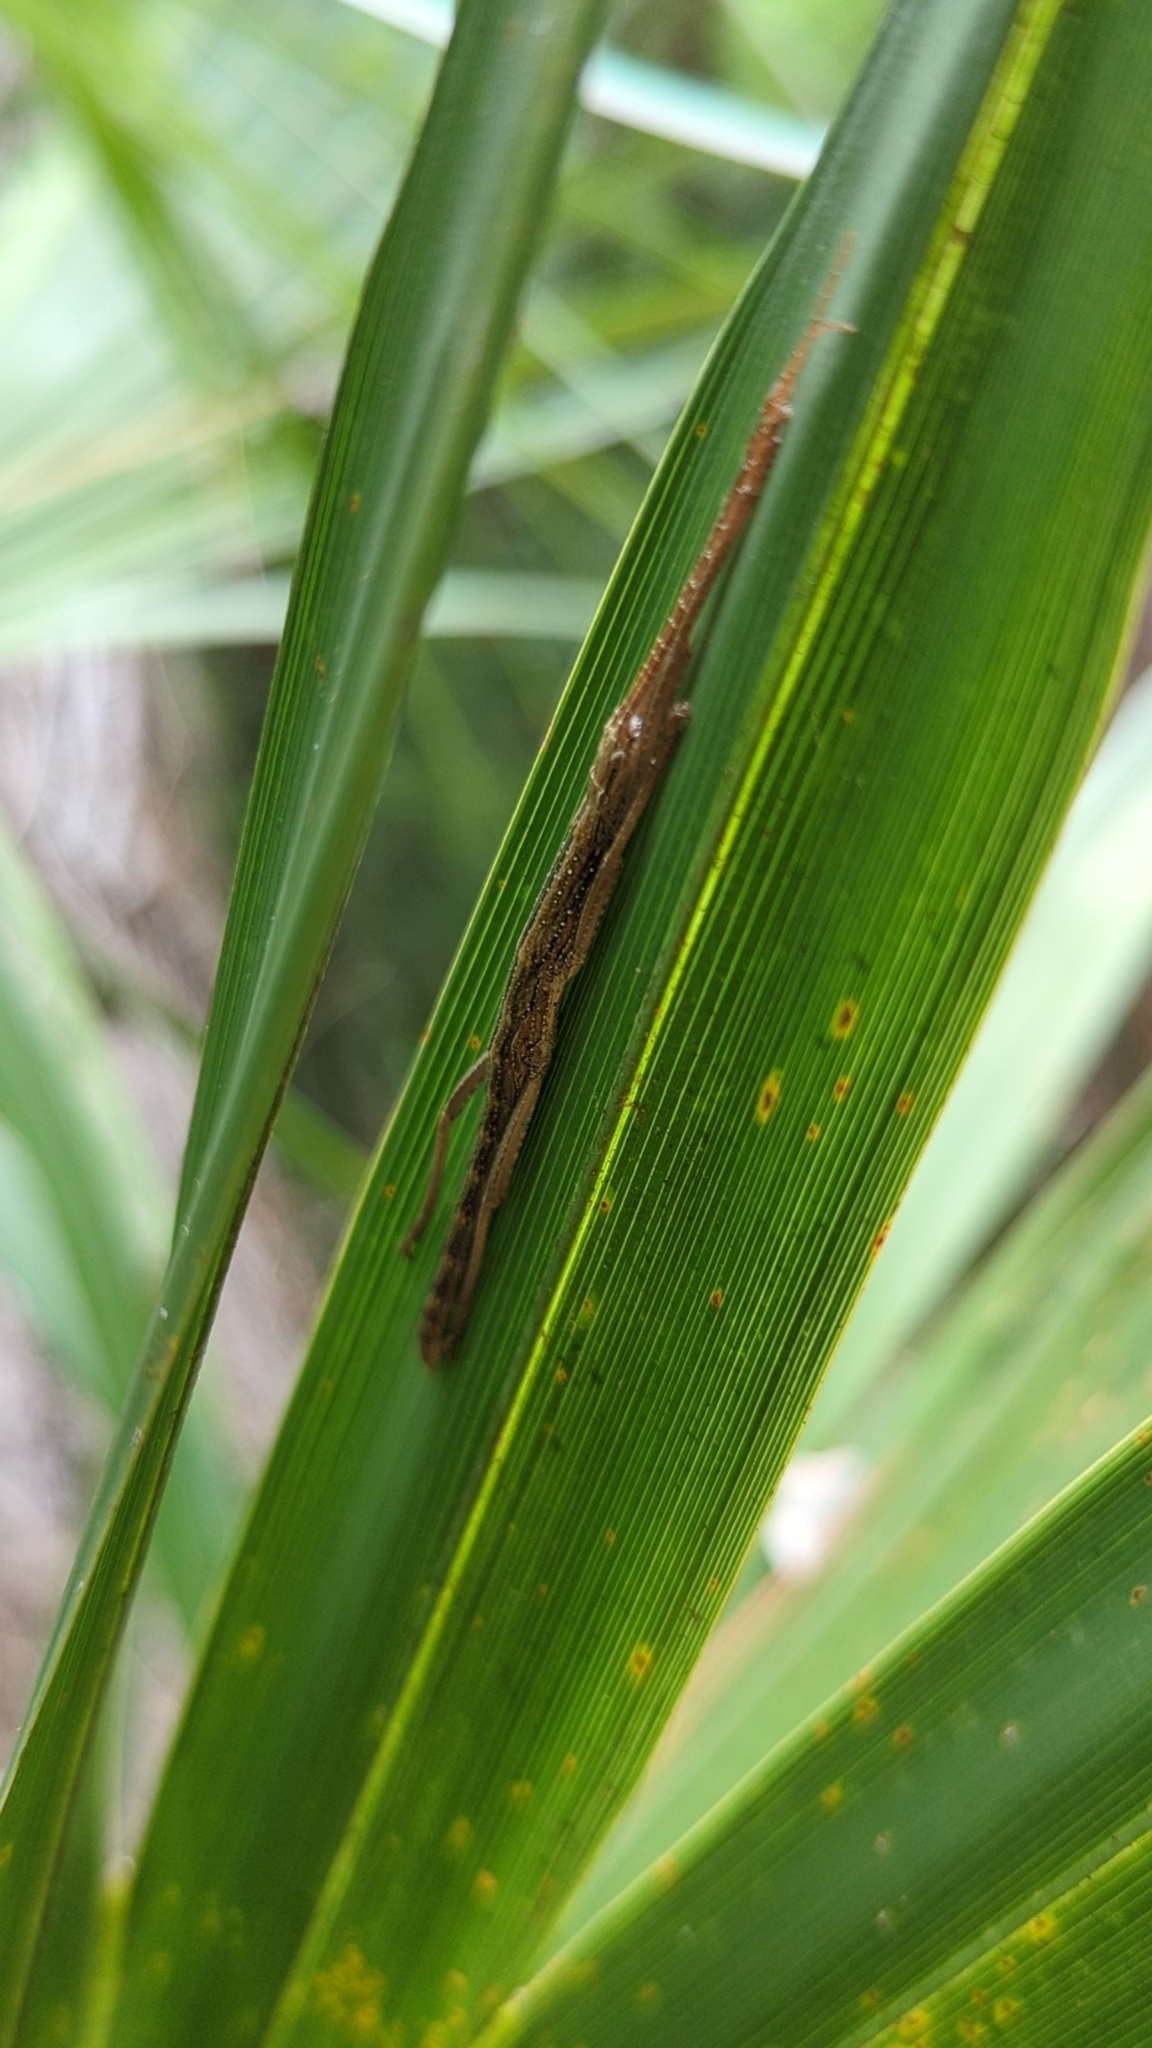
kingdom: Animalia
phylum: Arthropoda
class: Insecta
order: Phasmida
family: Pseudophasmatidae
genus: Anisomorpha
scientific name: Anisomorpha buprestoides
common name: Florida stick insect
